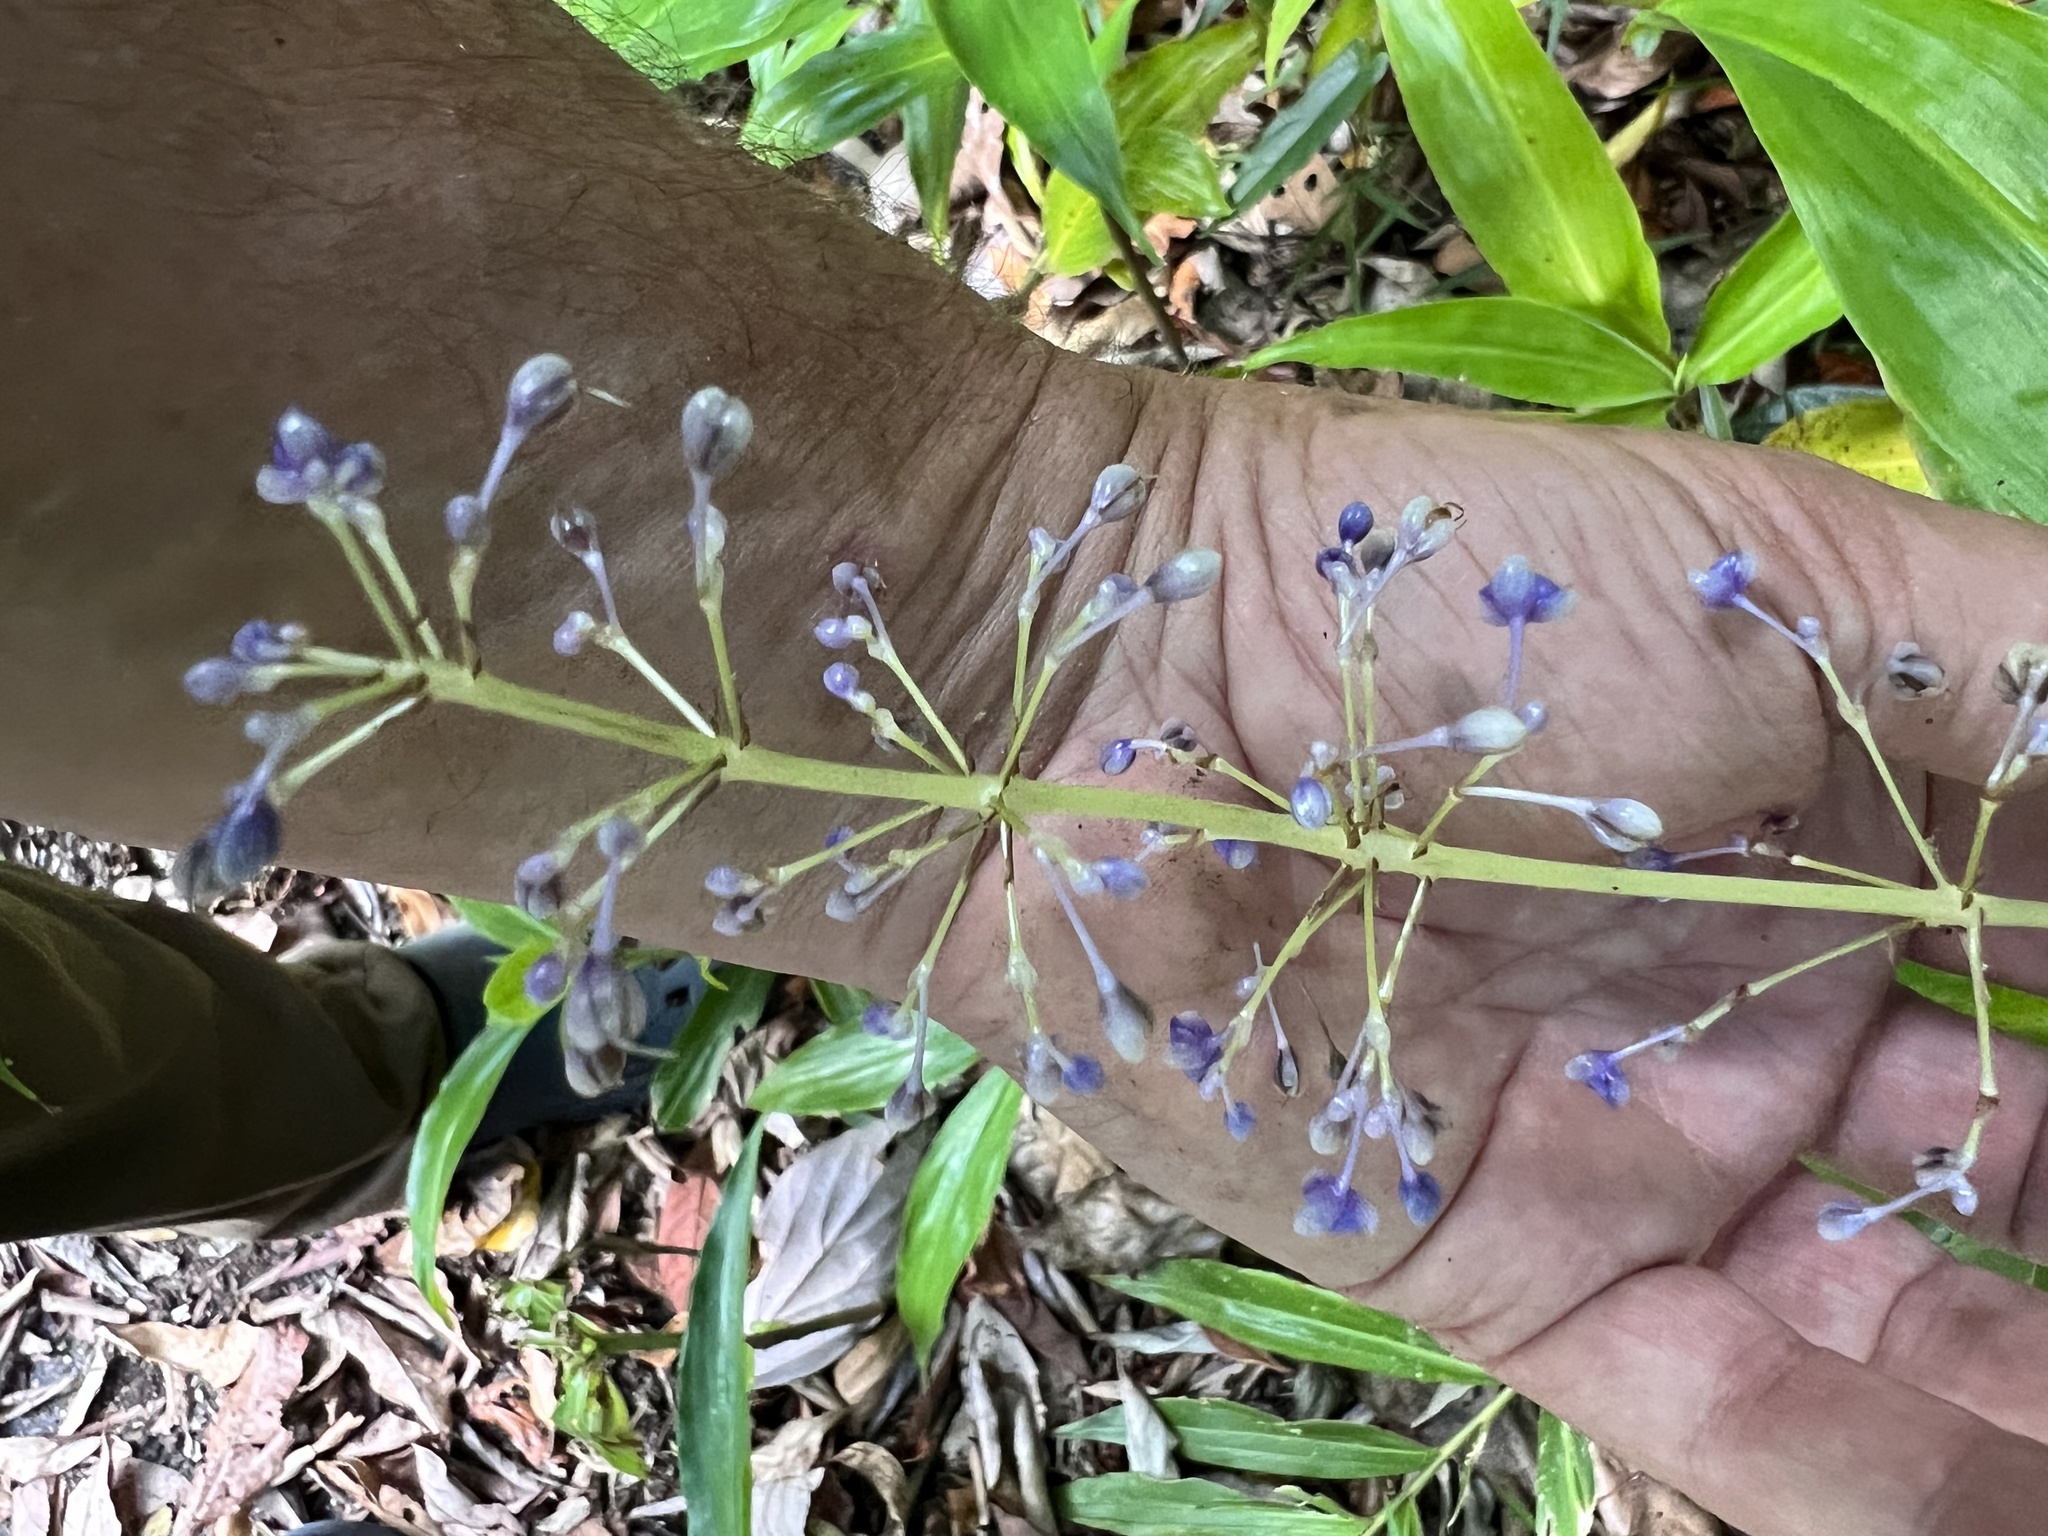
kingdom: Plantae
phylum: Tracheophyta
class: Liliopsida
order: Commelinales
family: Commelinaceae
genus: Pollia
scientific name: Pollia macrophylla
